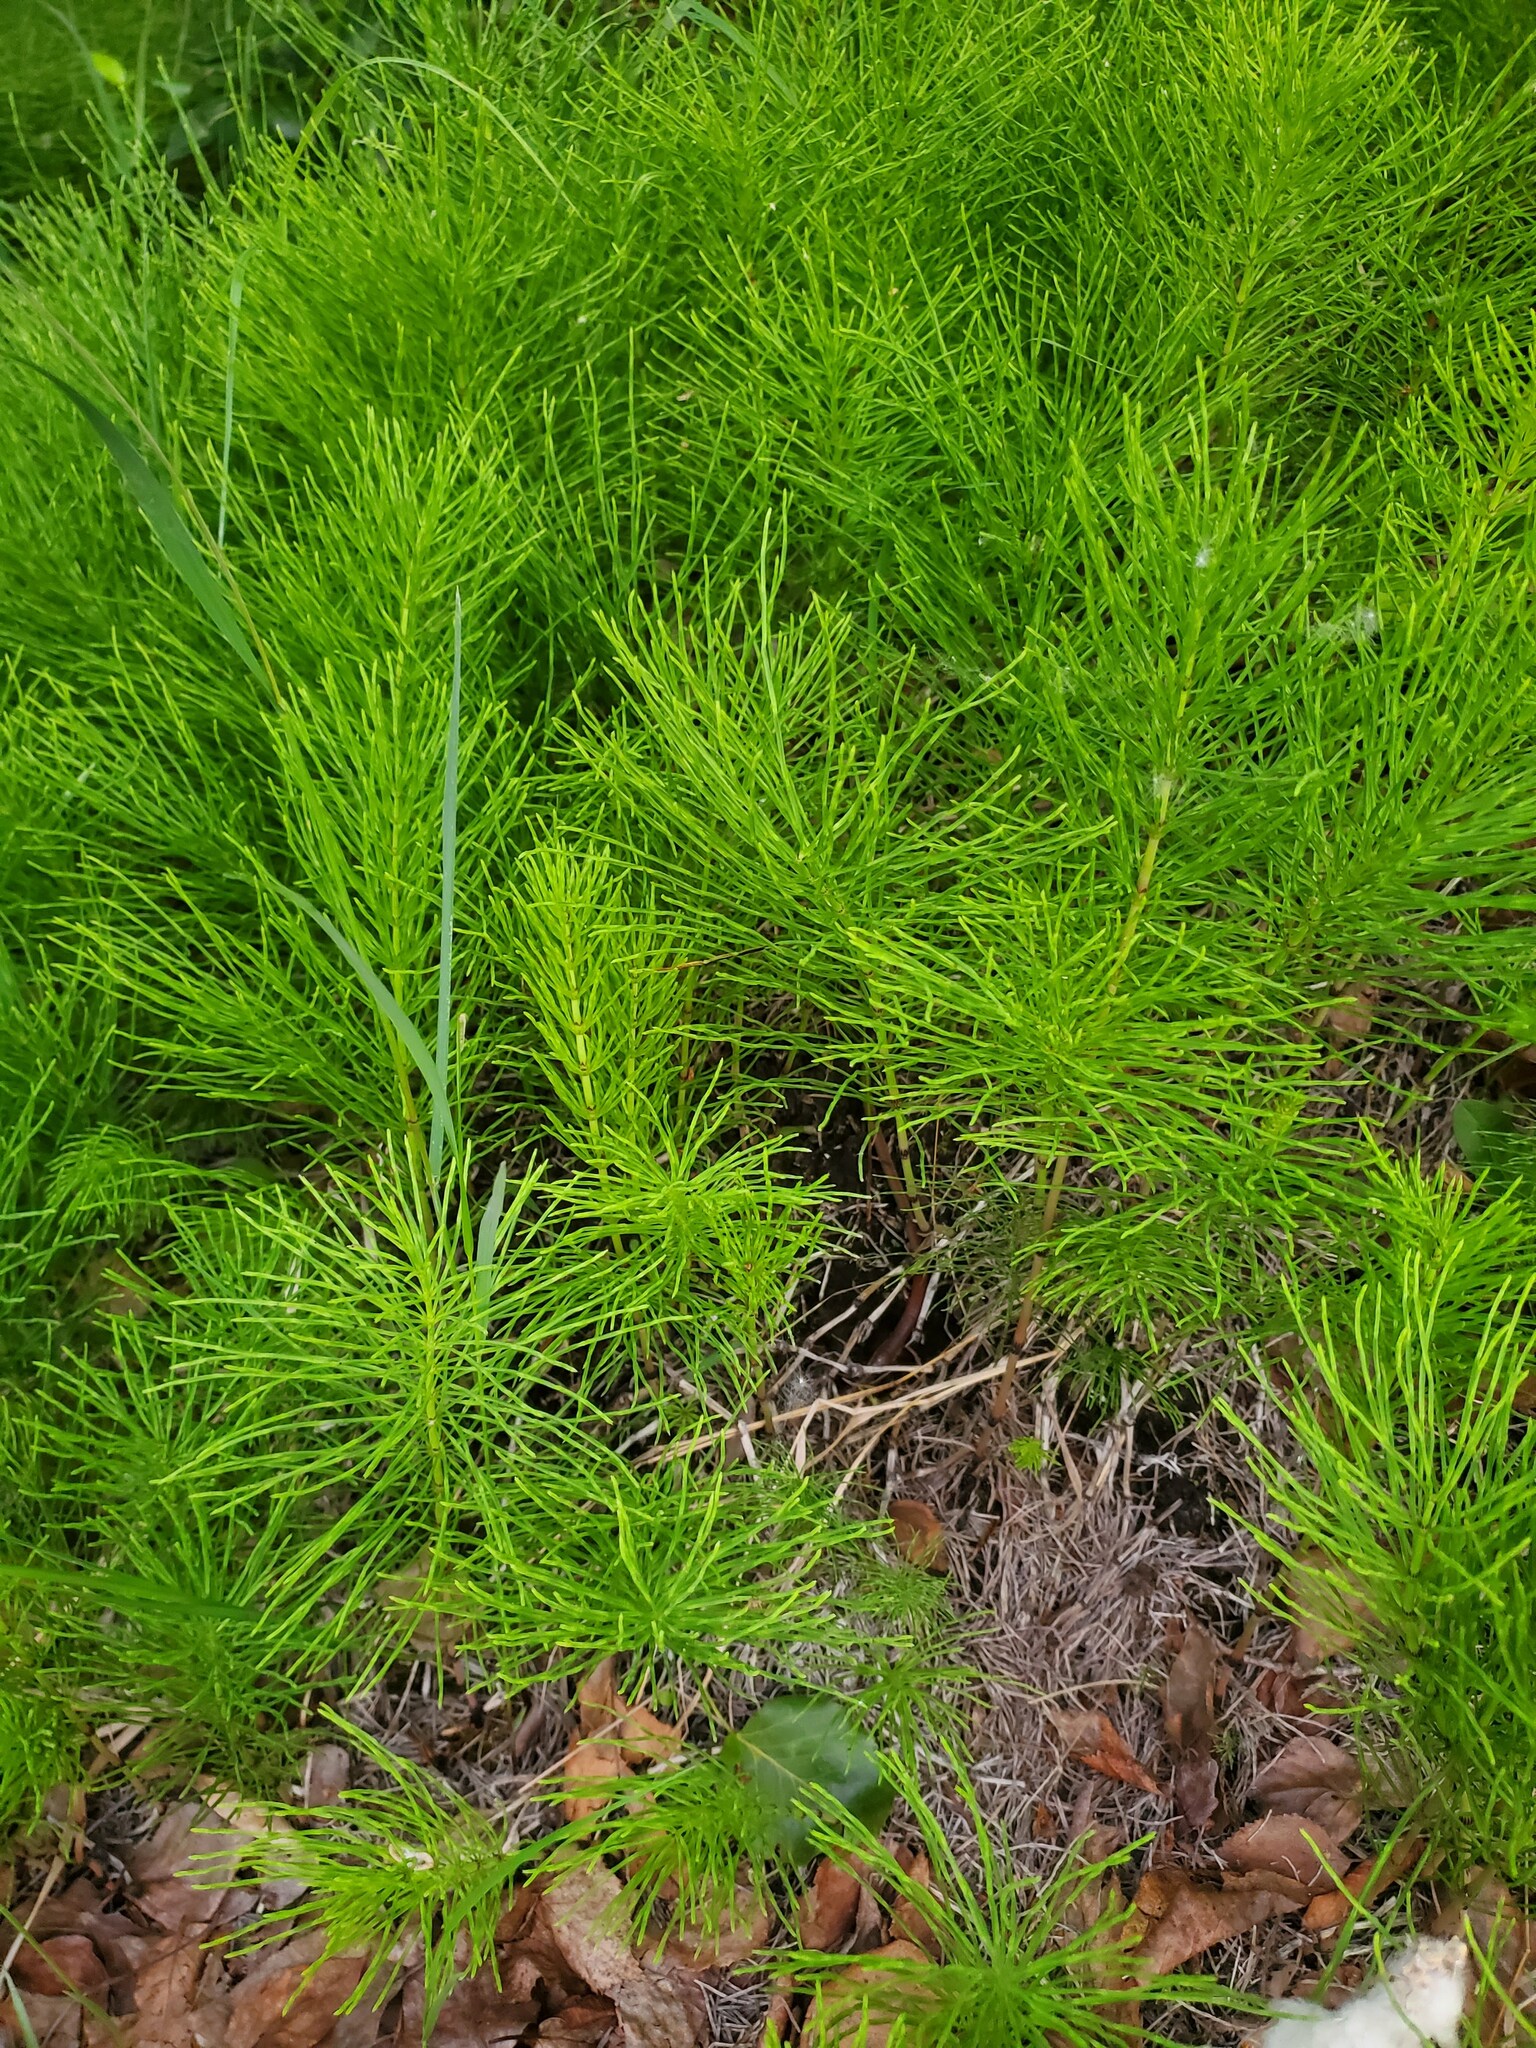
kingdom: Plantae
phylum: Tracheophyta
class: Polypodiopsida
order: Equisetales
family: Equisetaceae
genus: Equisetum
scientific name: Equisetum arvense
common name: Field horsetail
